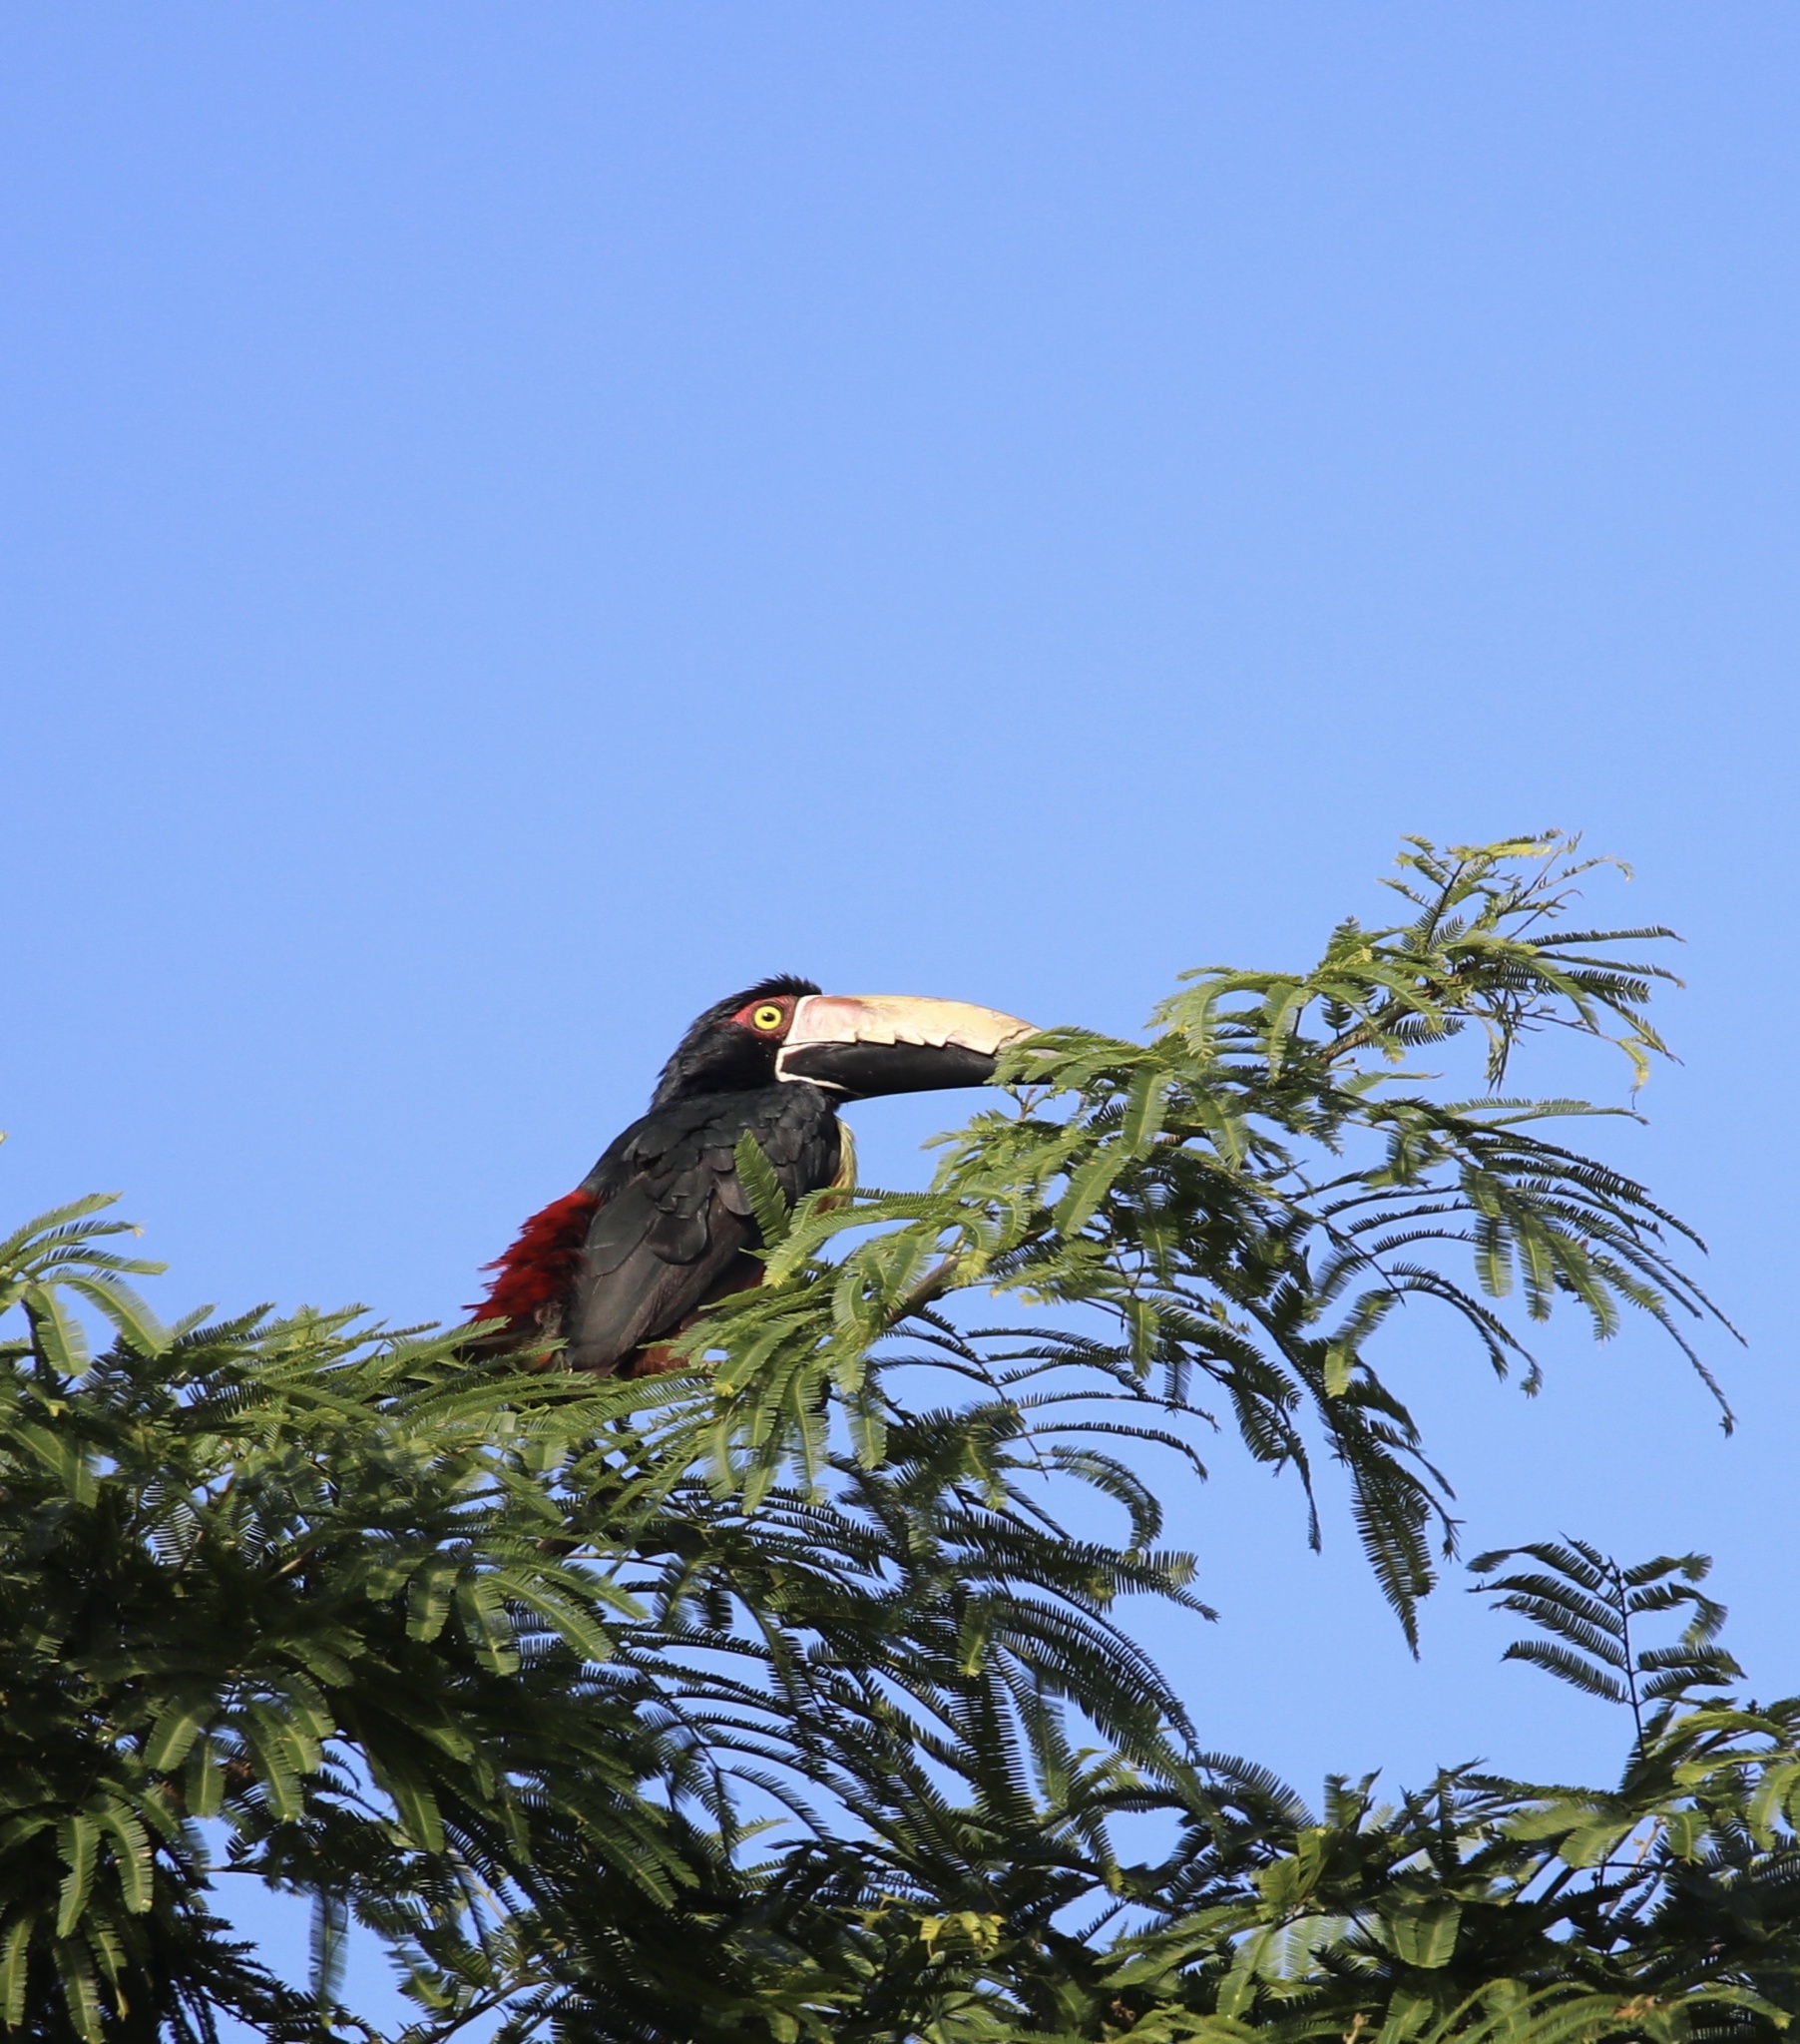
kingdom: Animalia
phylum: Chordata
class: Aves
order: Piciformes
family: Ramphastidae
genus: Pteroglossus
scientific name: Pteroglossus torquatus
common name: Collared aracari
